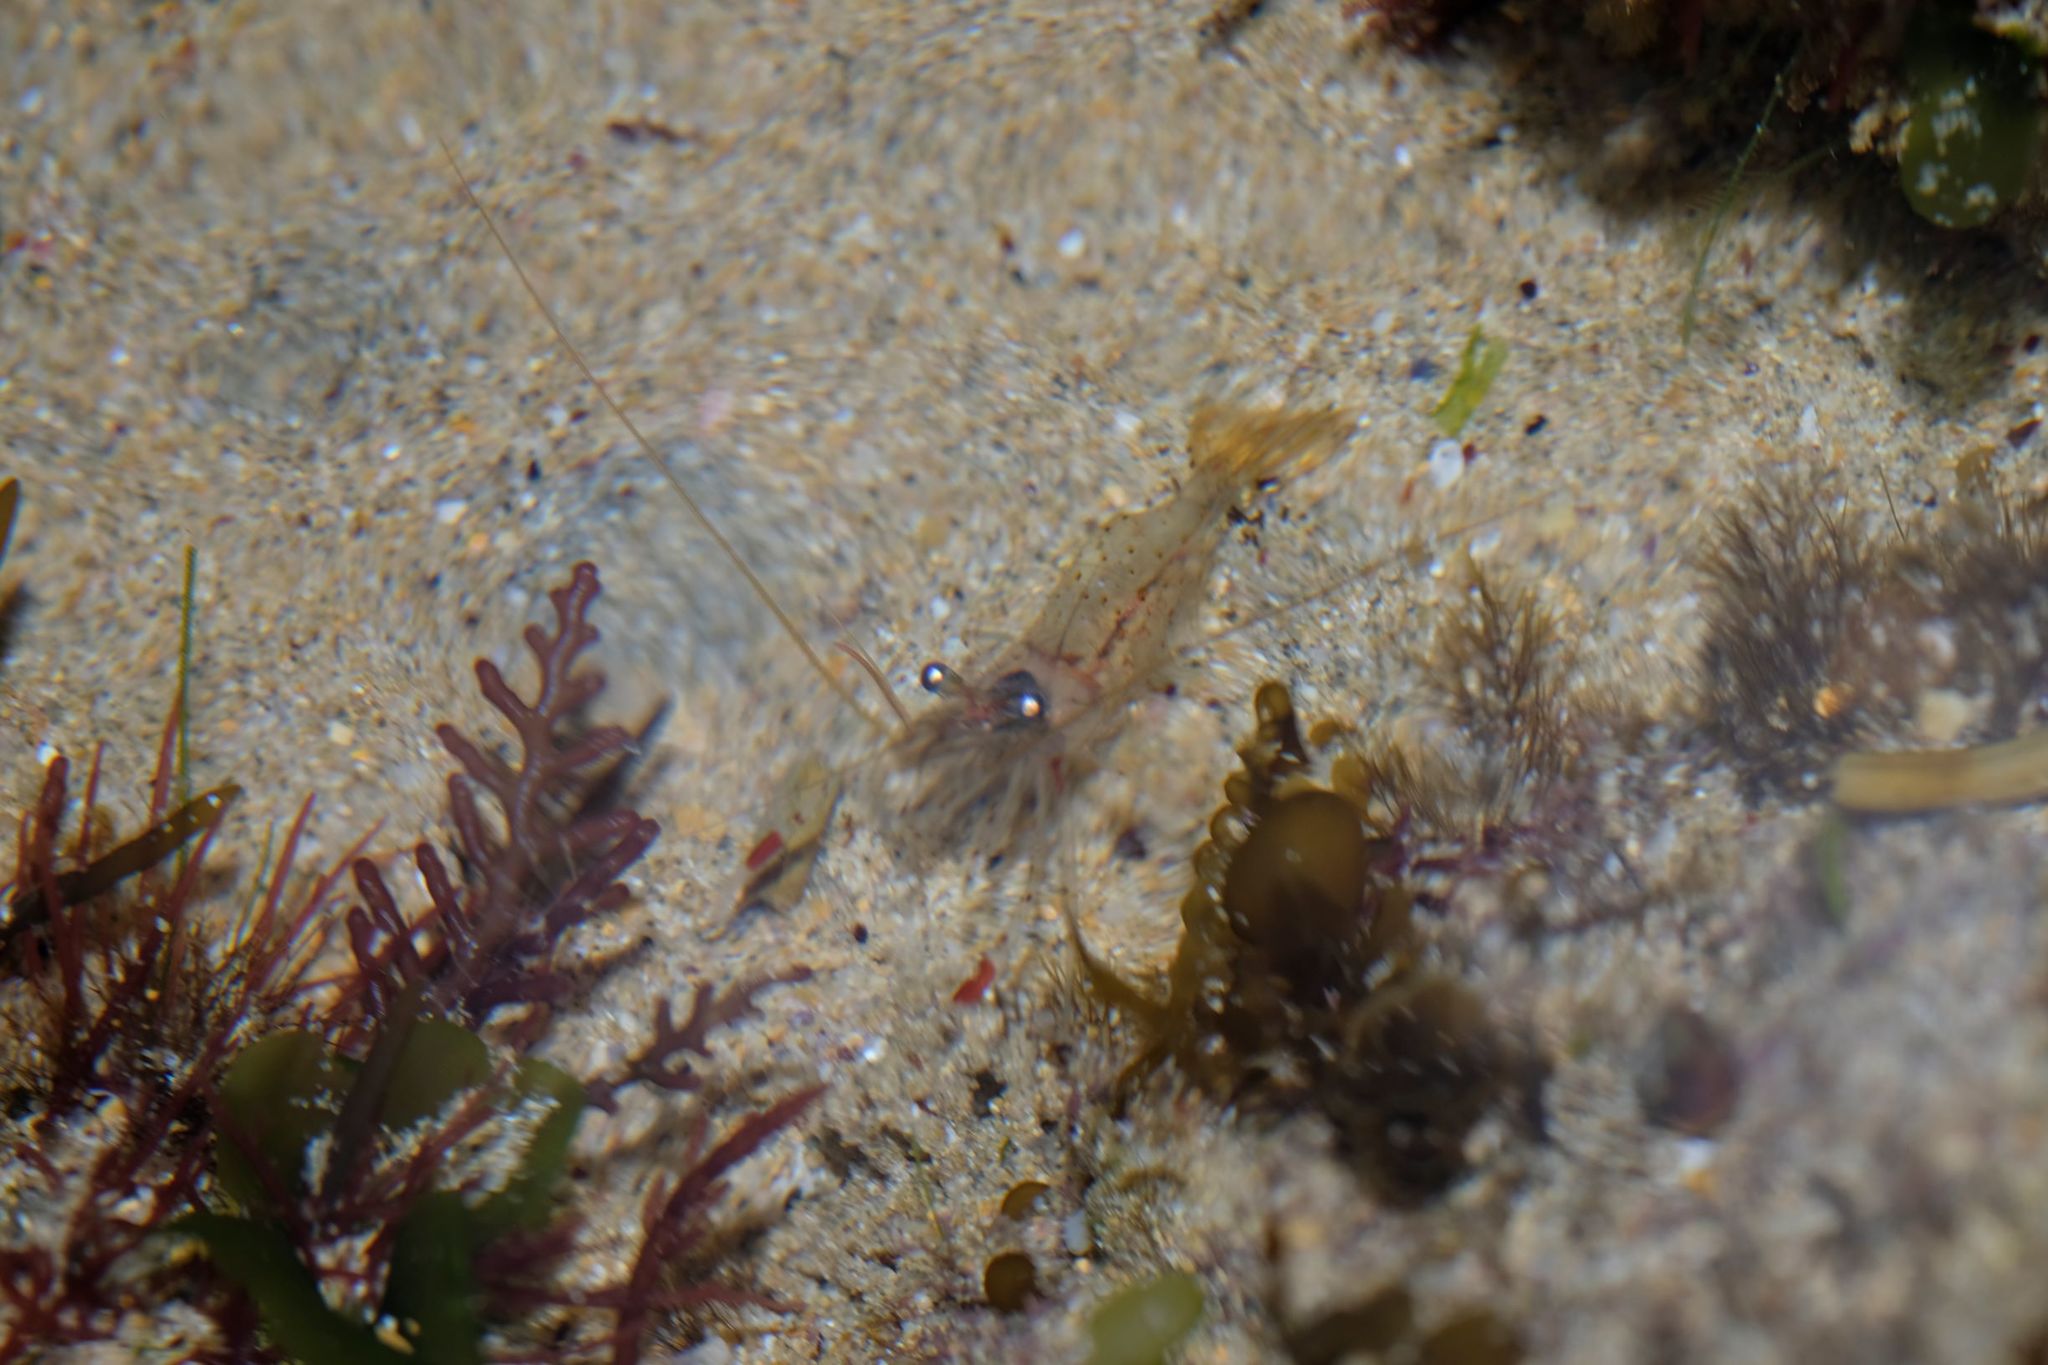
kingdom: Animalia
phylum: Arthropoda
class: Malacostraca
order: Decapoda
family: Palaemonidae
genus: Palaemon
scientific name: Palaemon serenus
